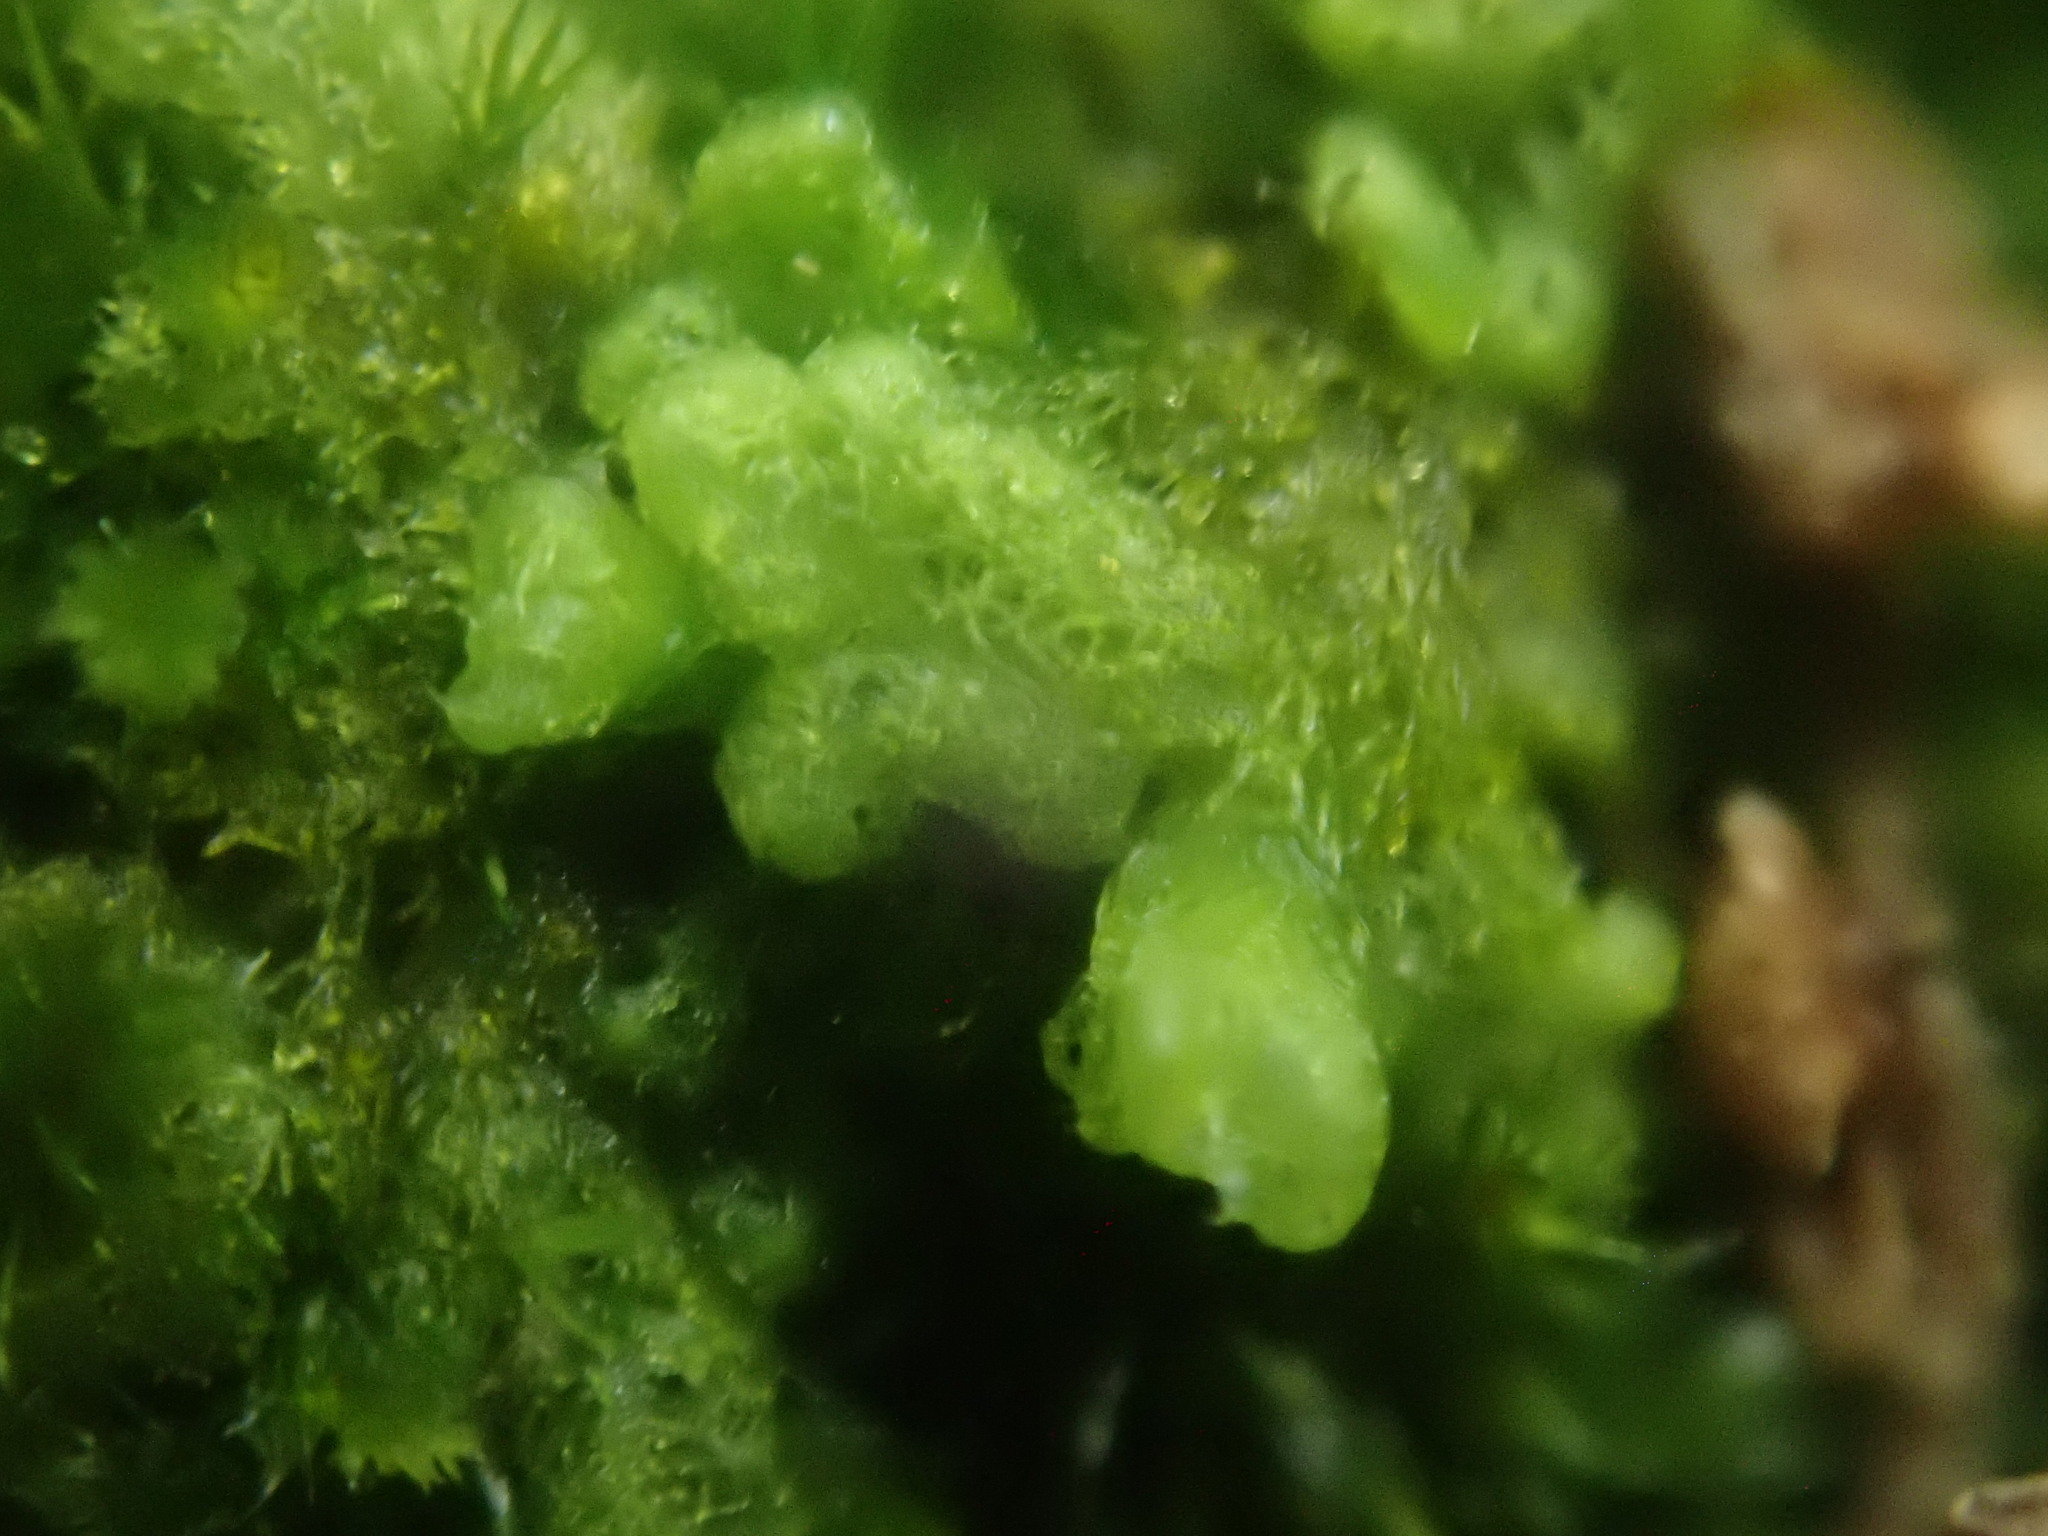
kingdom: Plantae
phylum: Marchantiophyta
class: Jungermanniopsida
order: Ptilidiales
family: Ptilidiaceae
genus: Ptilidium
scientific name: Ptilidium pulcherrimum
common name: Tree fringewort
